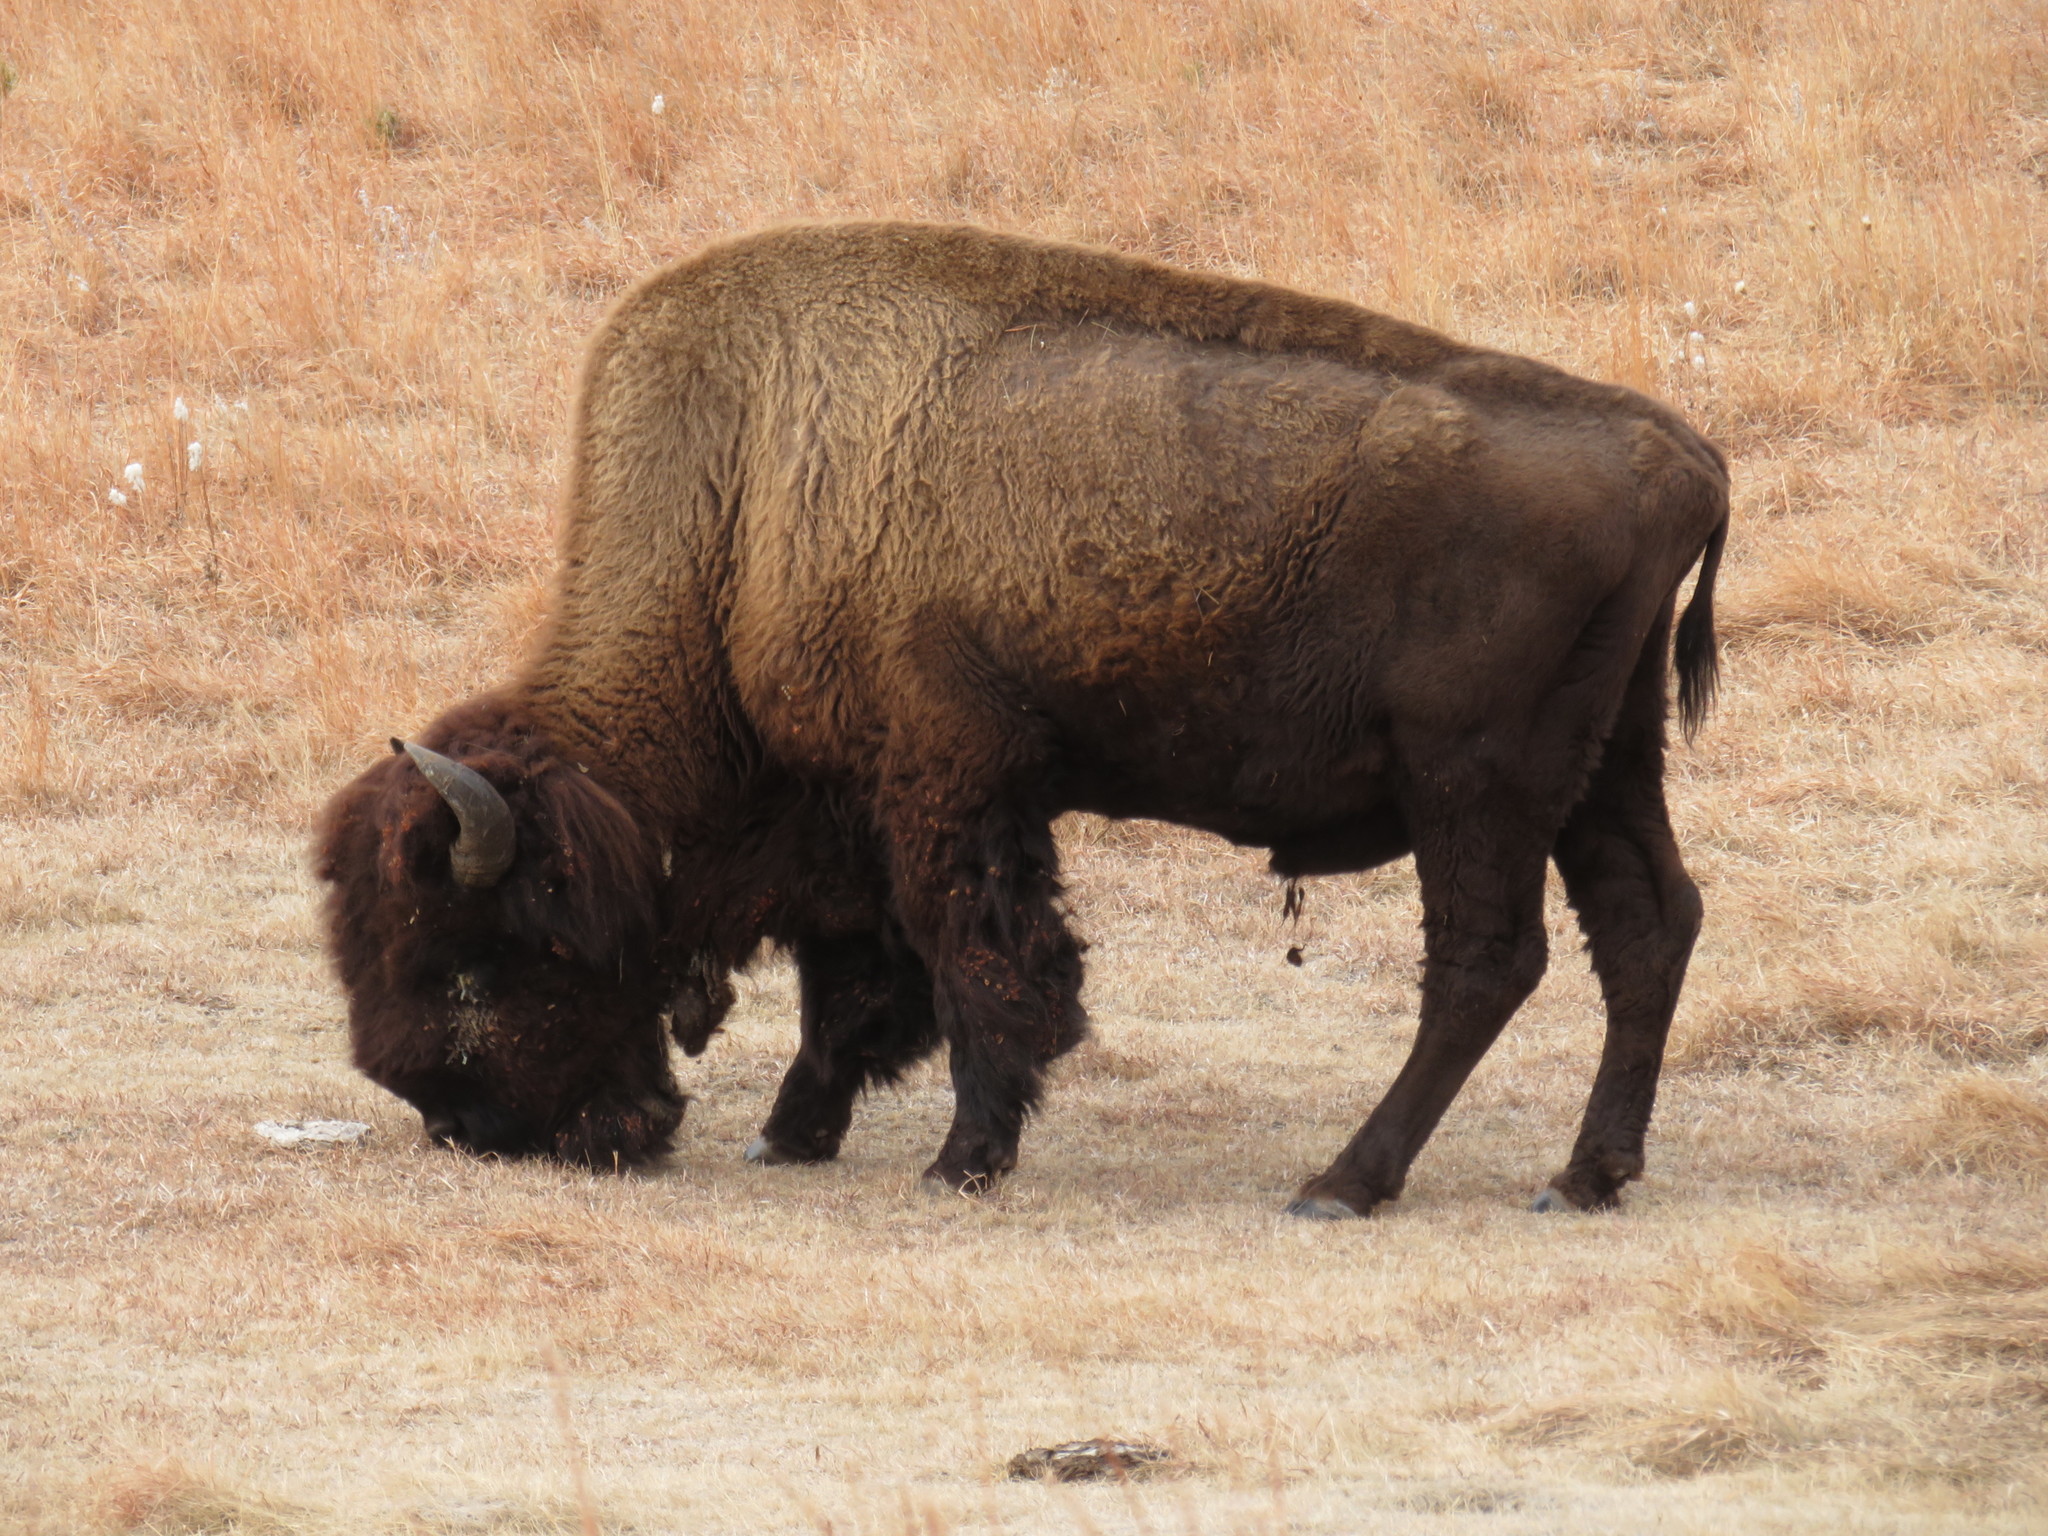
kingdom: Animalia
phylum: Chordata
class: Mammalia
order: Artiodactyla
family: Bovidae
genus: Bison
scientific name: Bison bison
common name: American bison
